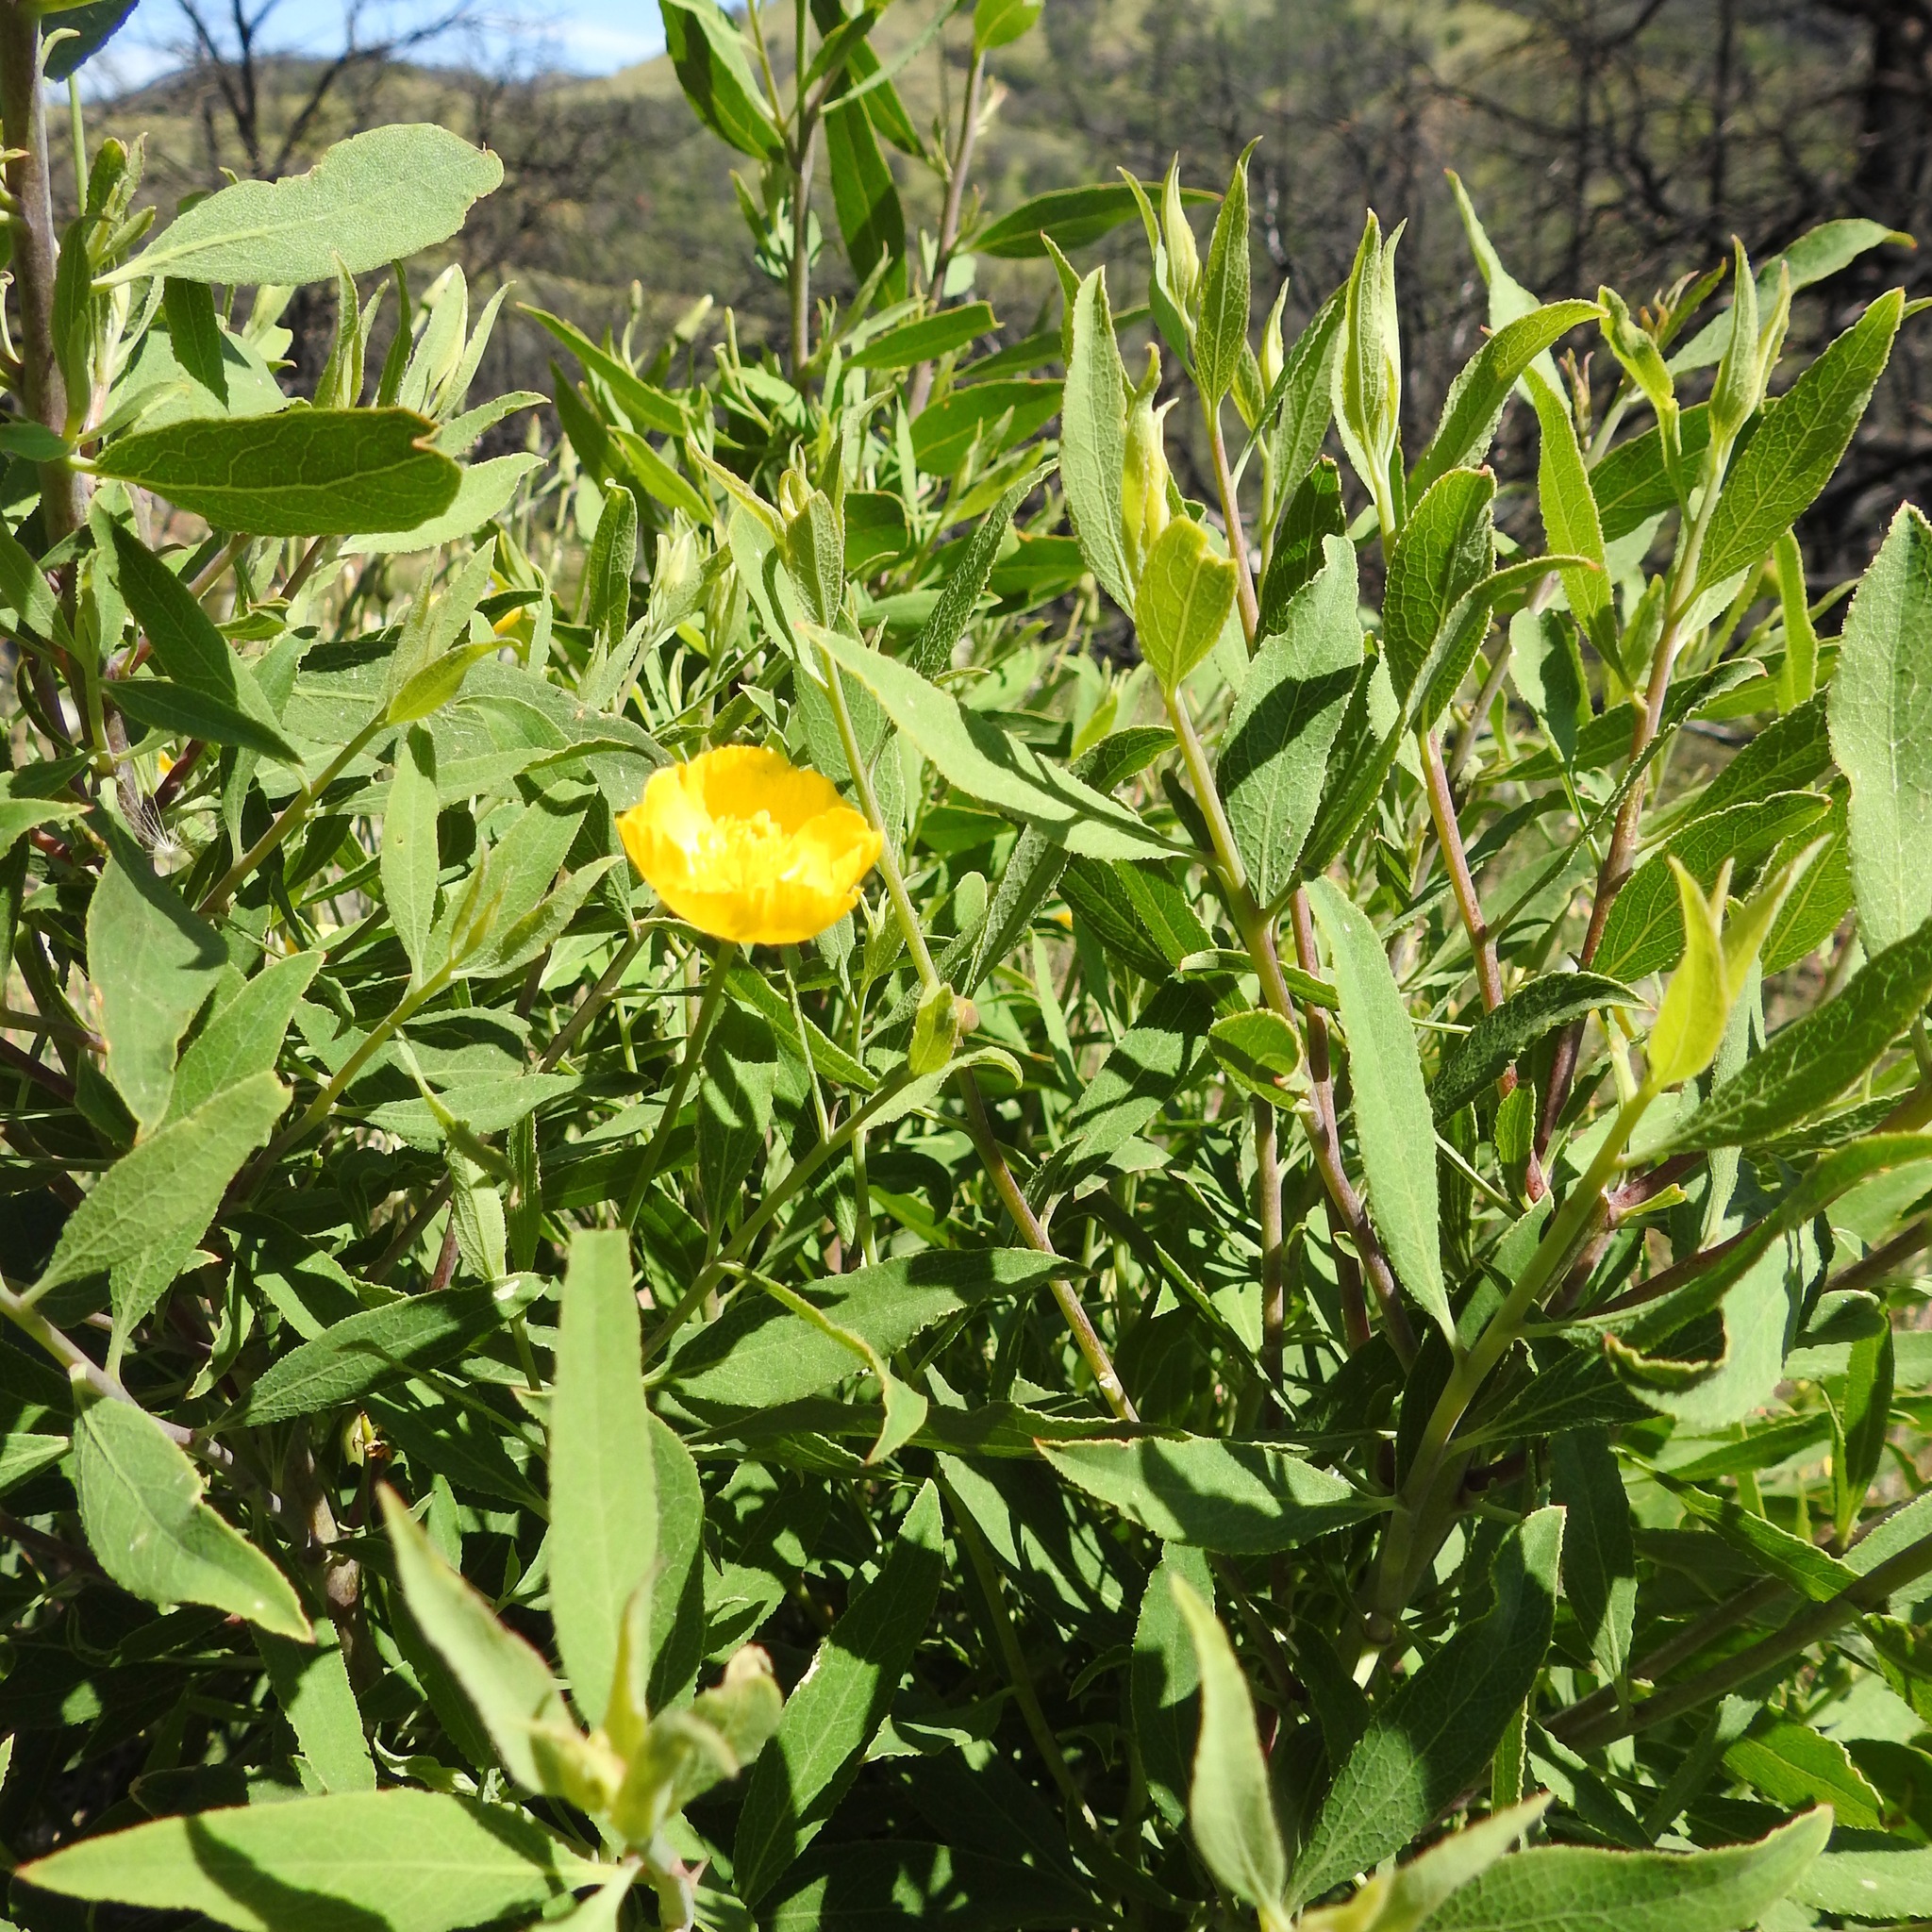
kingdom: Plantae
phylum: Tracheophyta
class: Magnoliopsida
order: Ranunculales
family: Papaveraceae
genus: Dendromecon
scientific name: Dendromecon rigida
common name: Tree poppy
